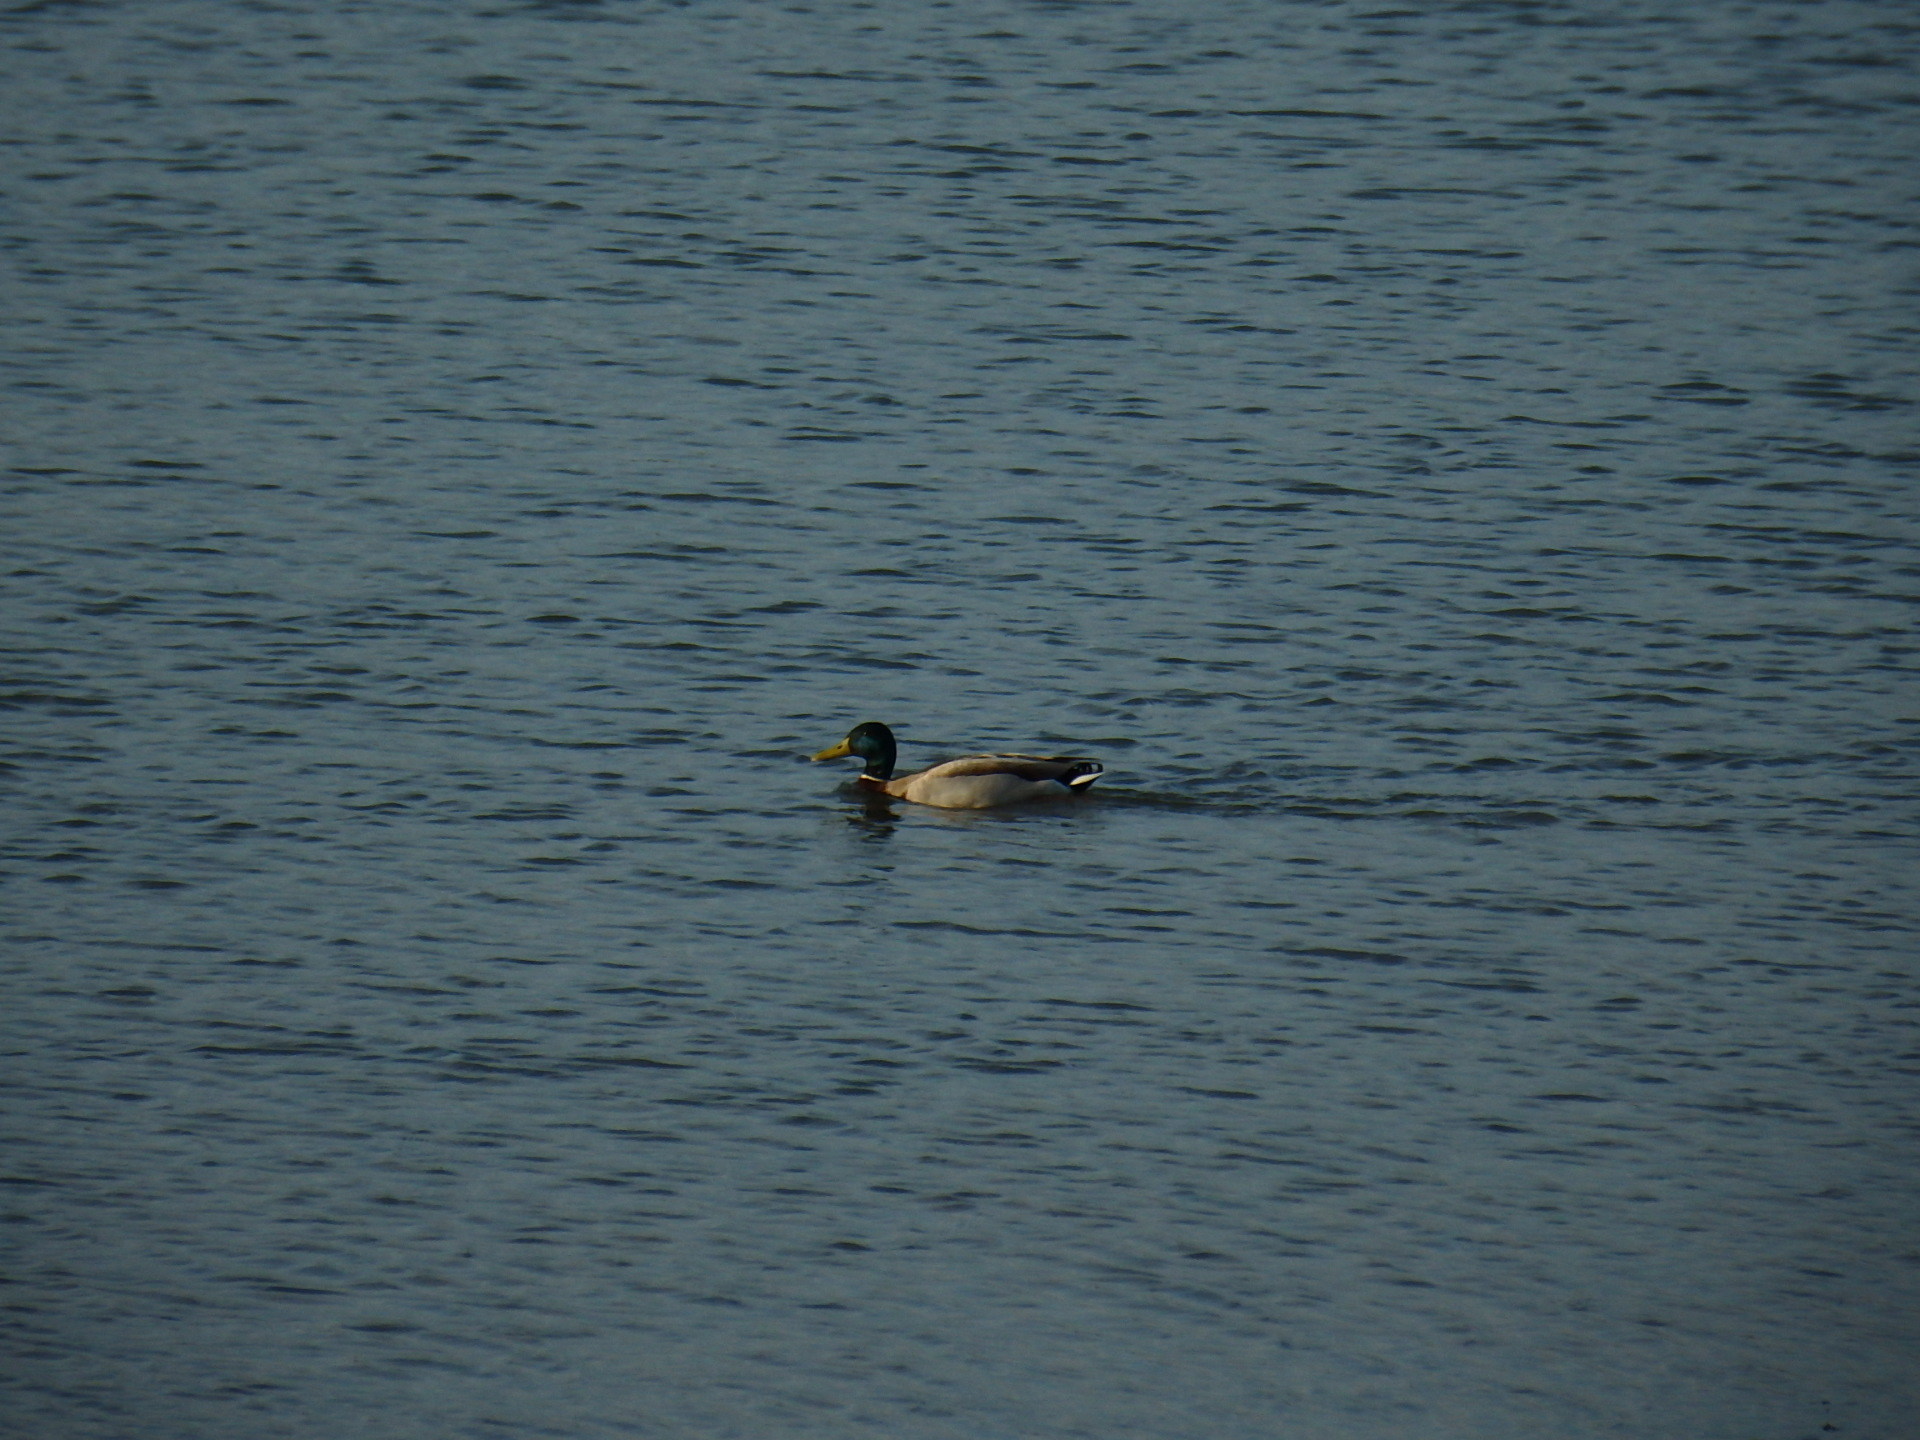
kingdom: Animalia
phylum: Chordata
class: Aves
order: Anseriformes
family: Anatidae
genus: Anas
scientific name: Anas platyrhynchos
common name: Mallard
